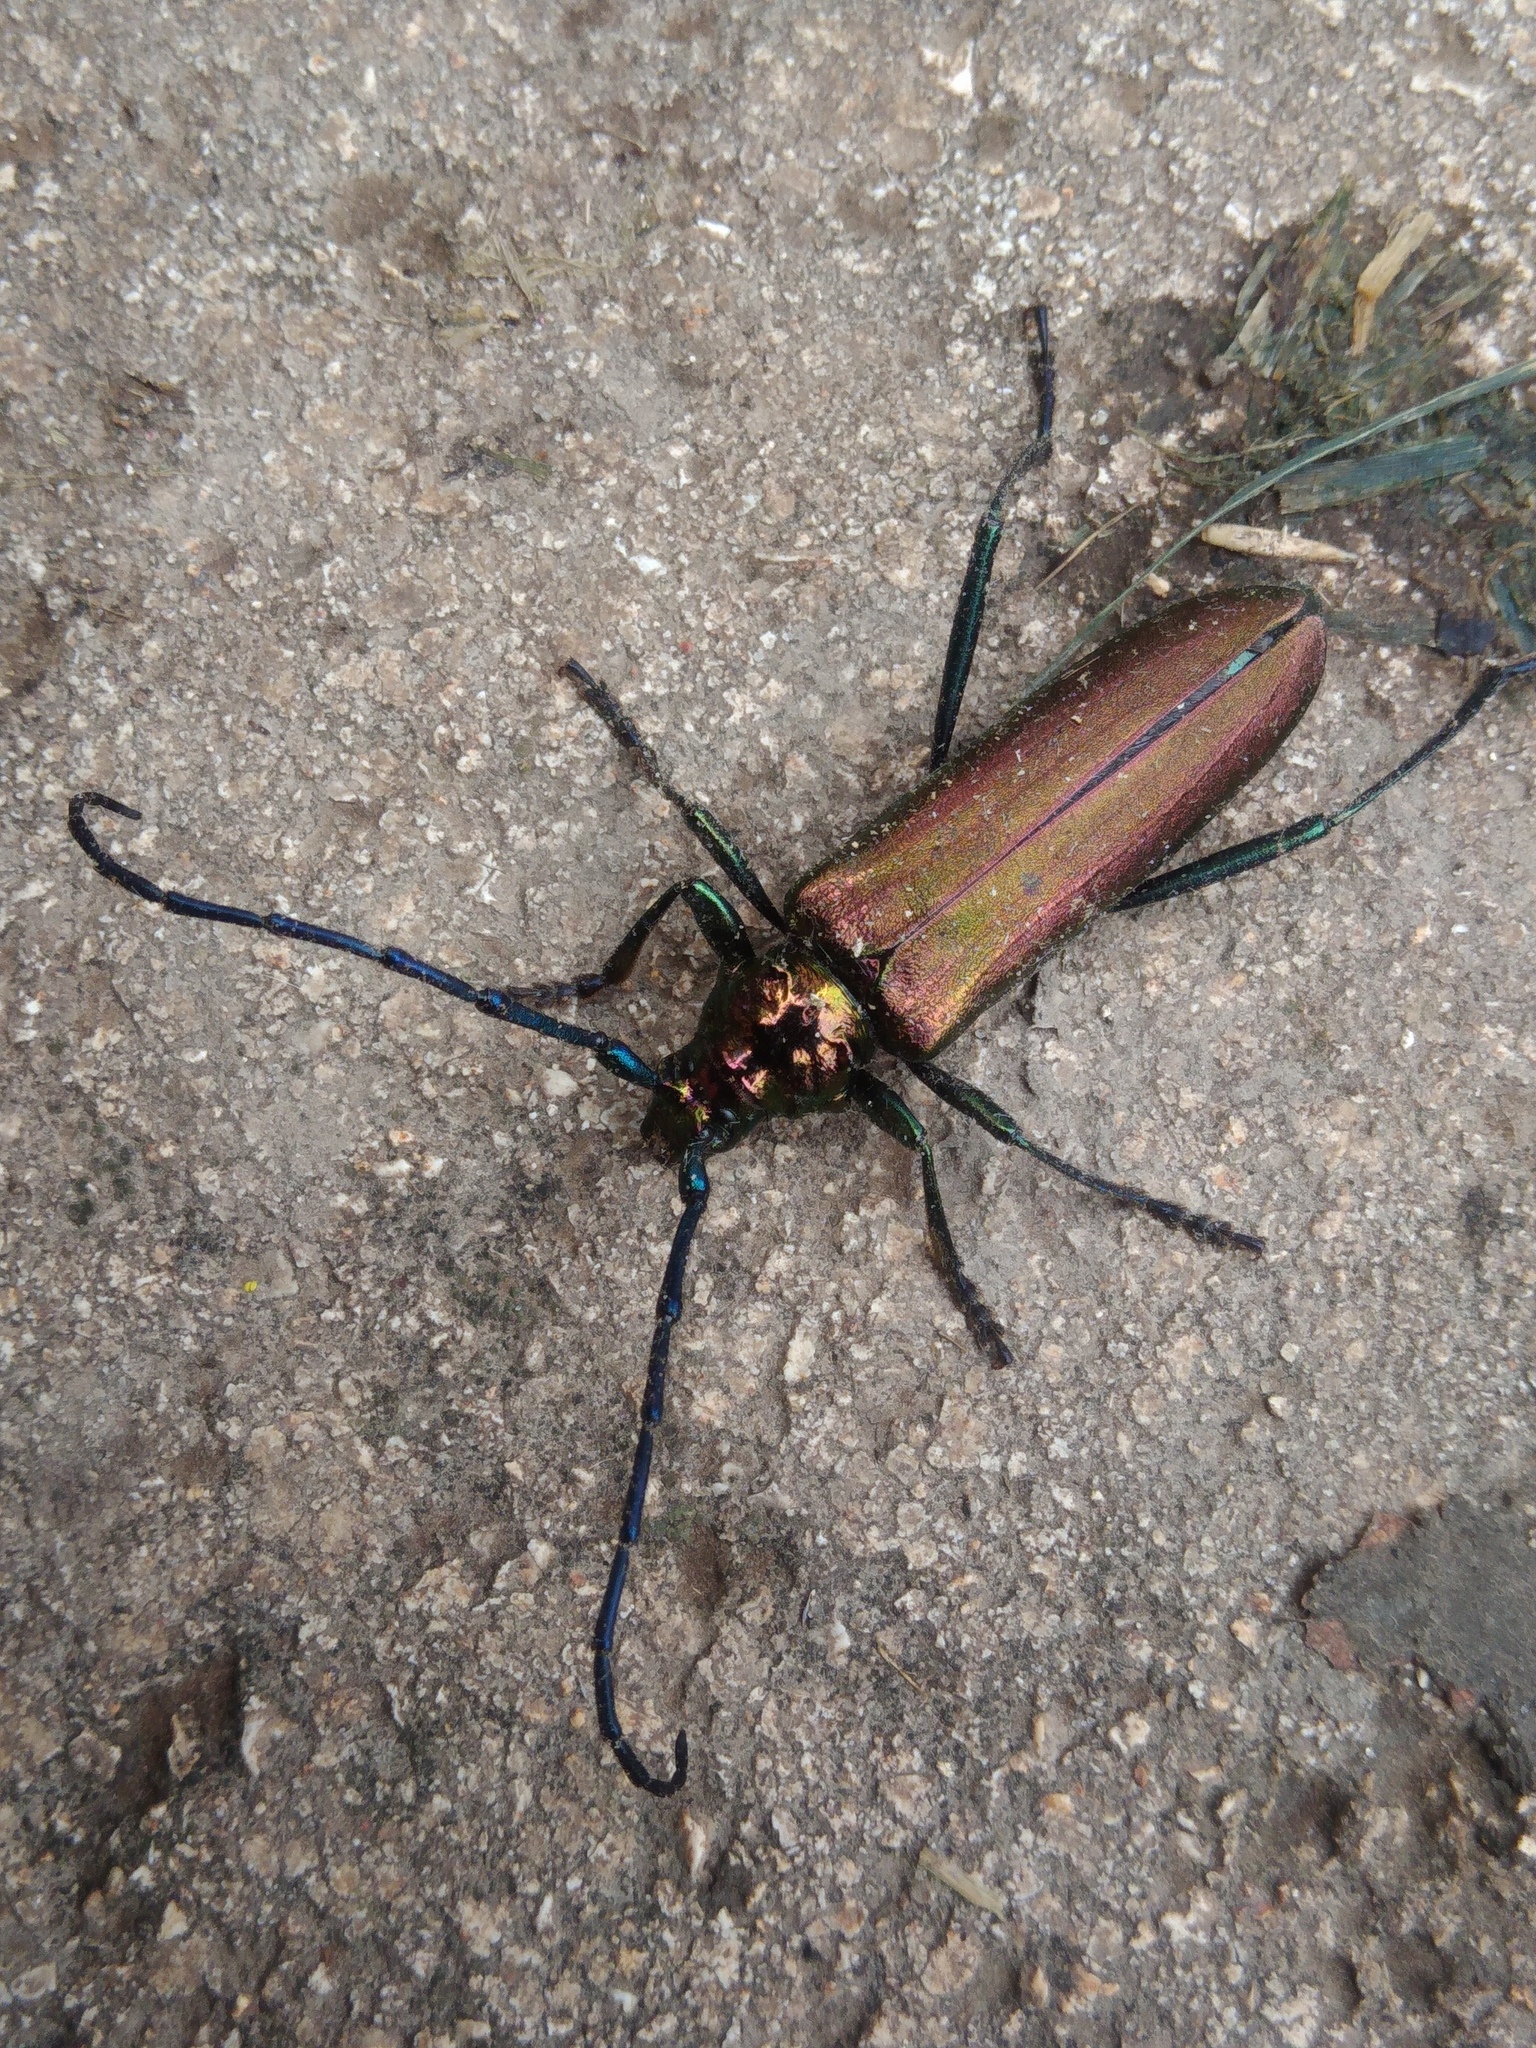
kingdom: Animalia
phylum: Arthropoda
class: Insecta
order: Coleoptera
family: Cerambycidae
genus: Aromia
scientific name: Aromia moschata
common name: Musk beetle
